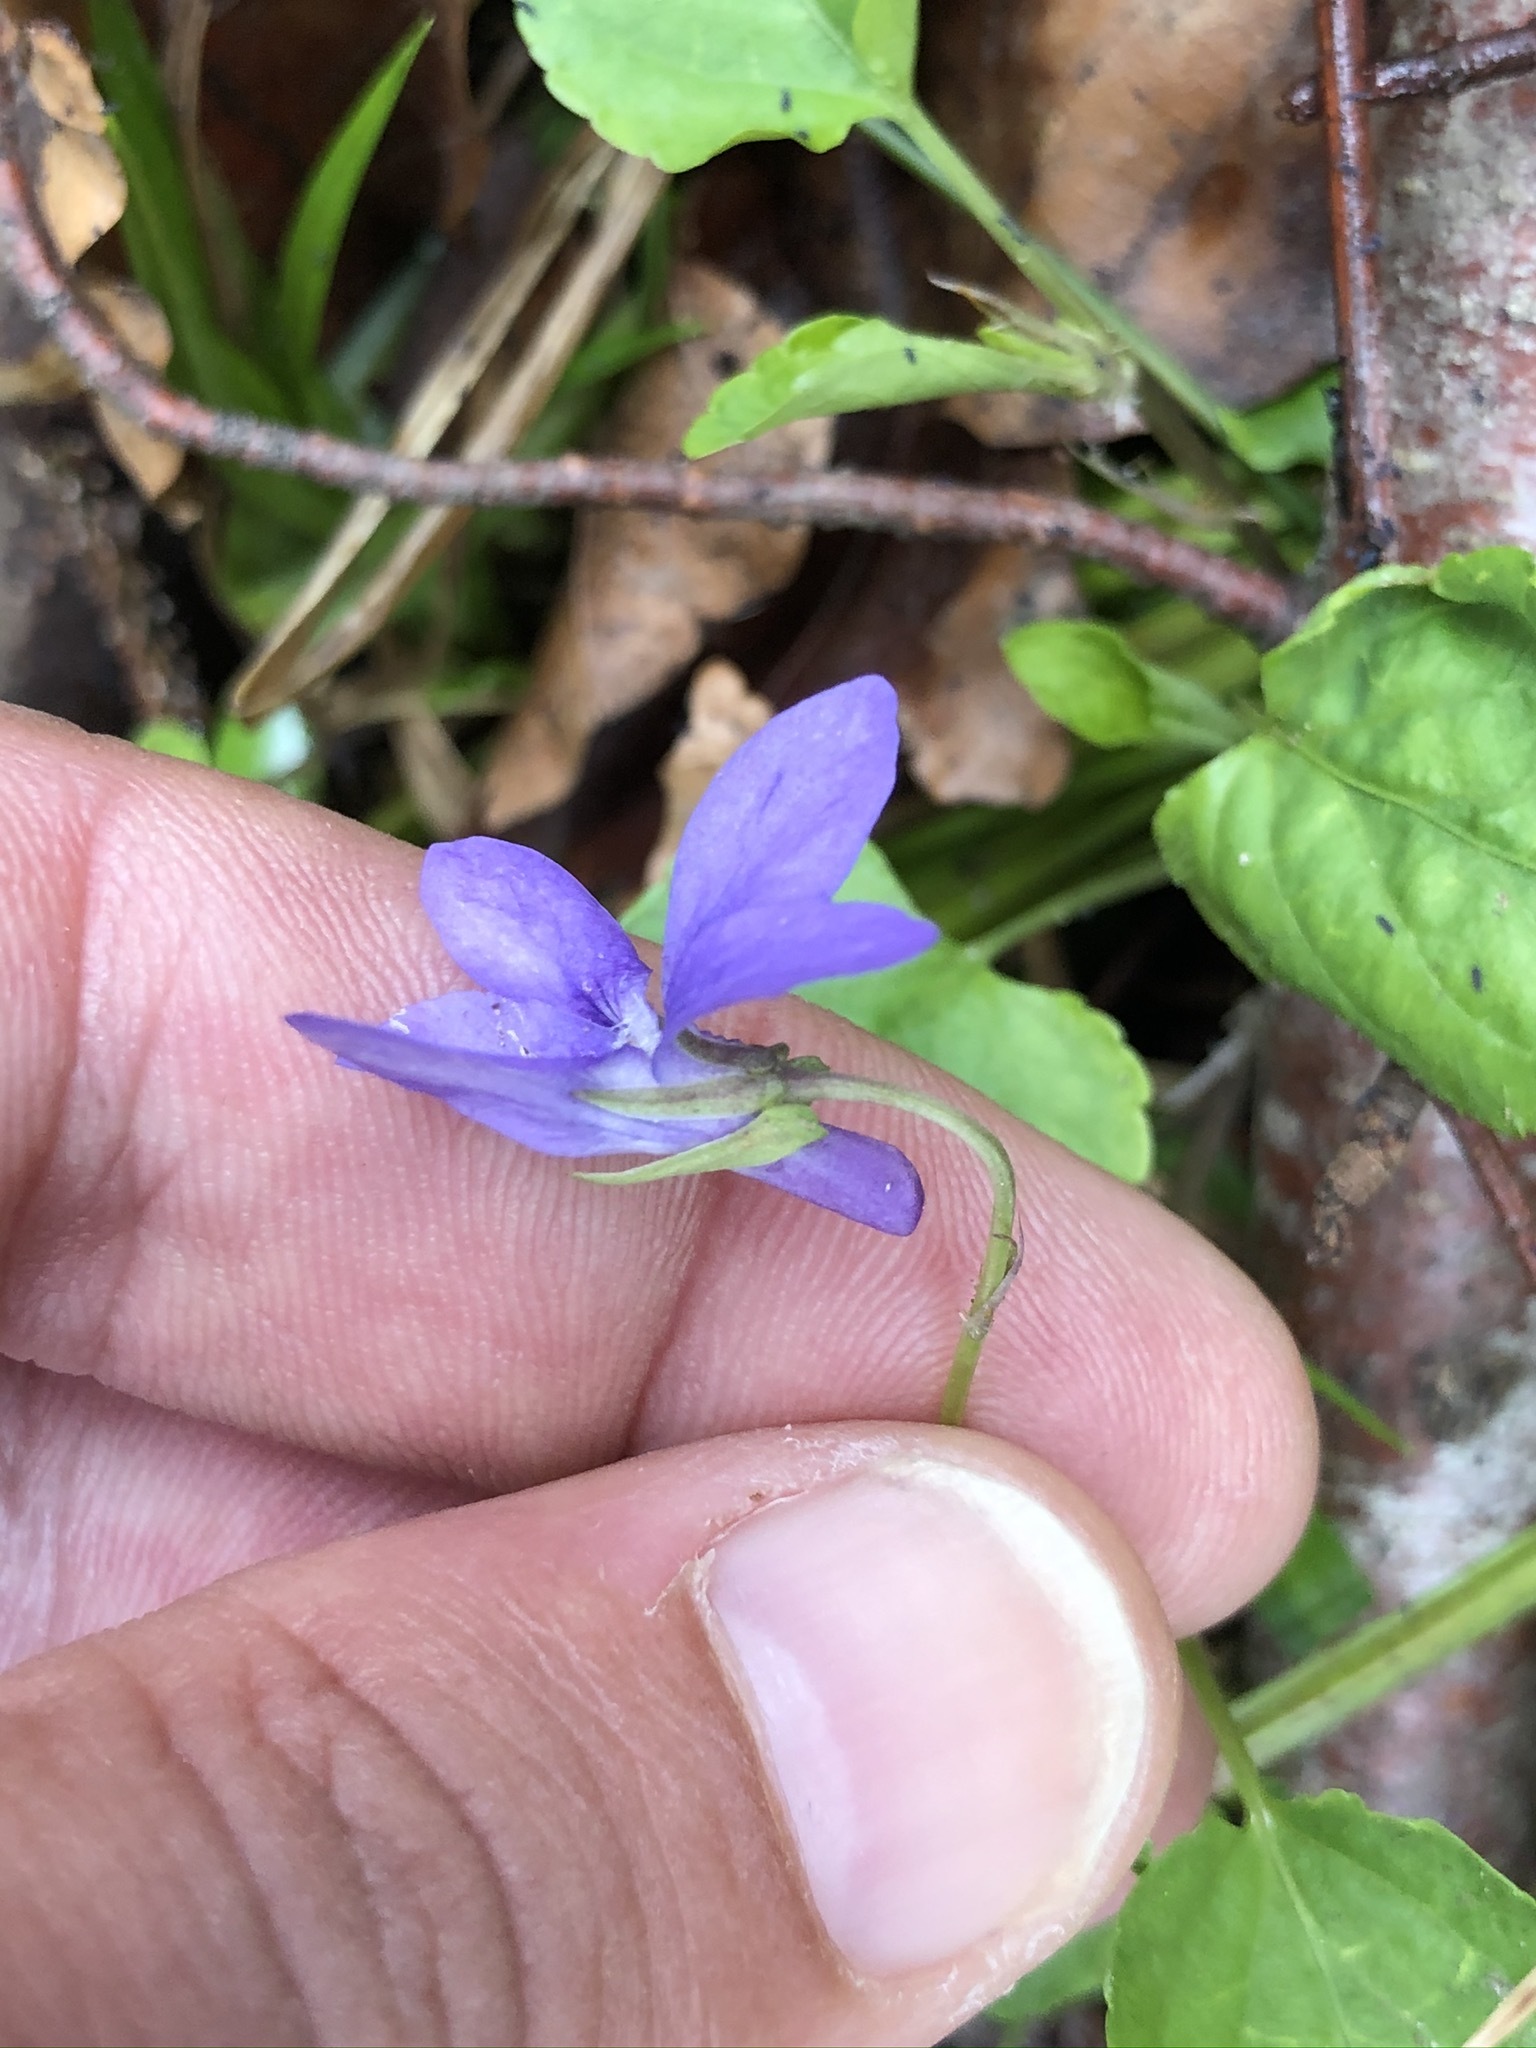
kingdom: Plantae
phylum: Tracheophyta
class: Magnoliopsida
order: Malpighiales
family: Violaceae
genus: Viola
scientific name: Viola reichenbachiana
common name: Early dog-violet
